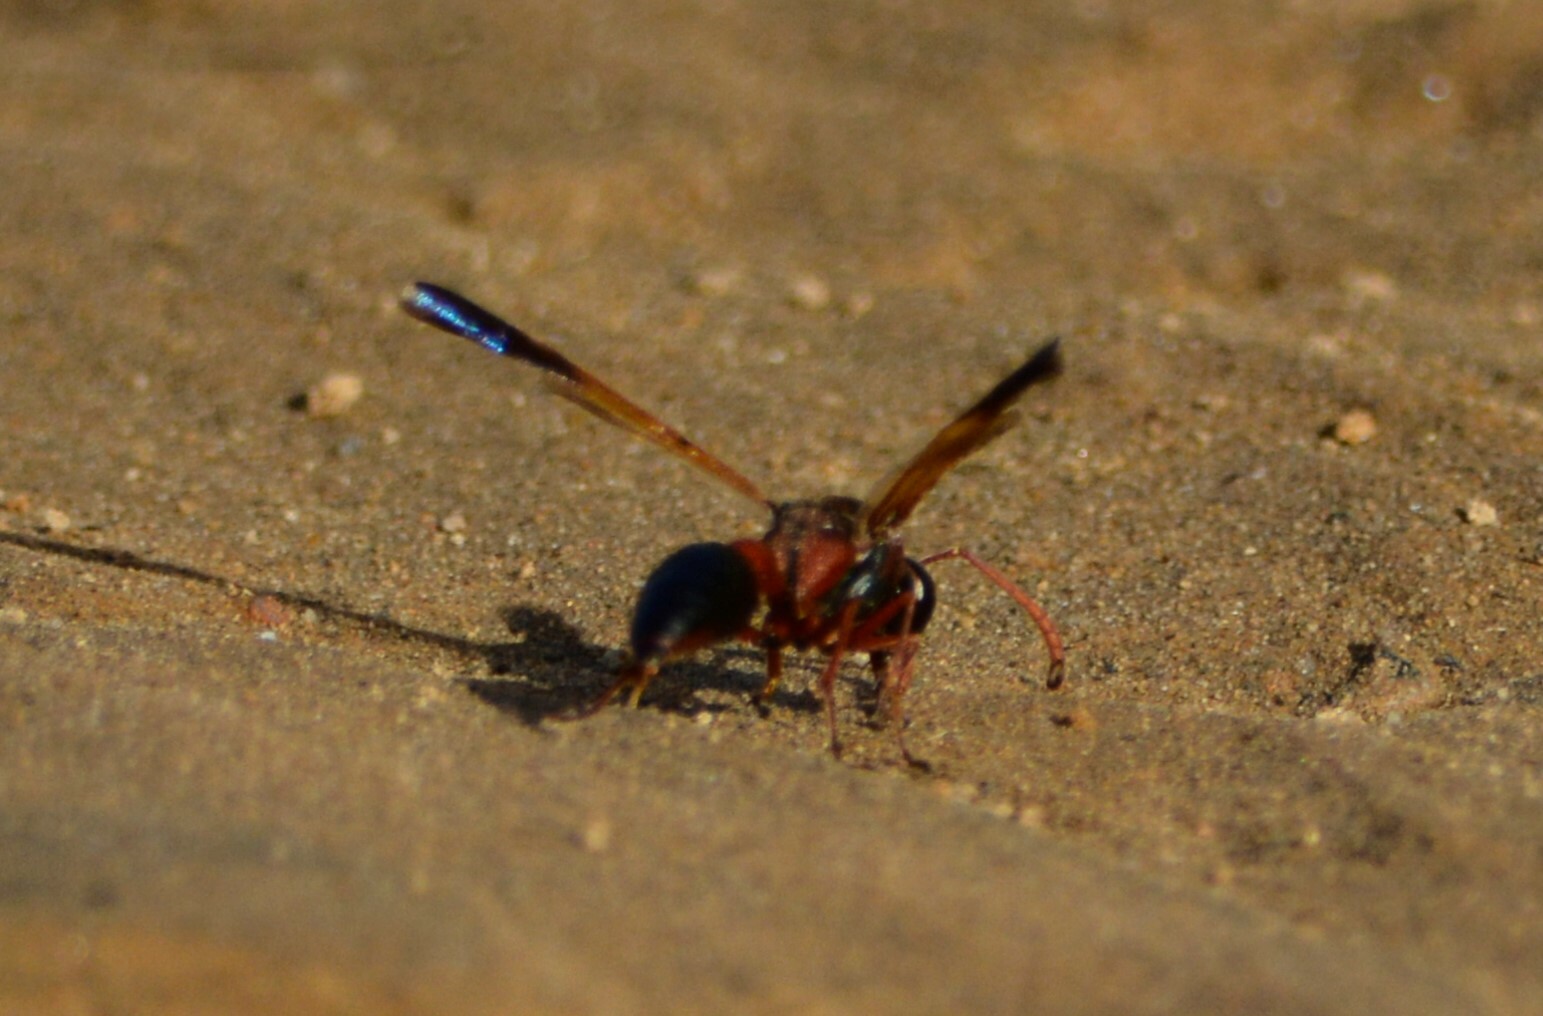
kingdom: Animalia
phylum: Arthropoda
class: Insecta
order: Hymenoptera
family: Eumenidae
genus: Delta
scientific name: Delta dimidiatipenne
